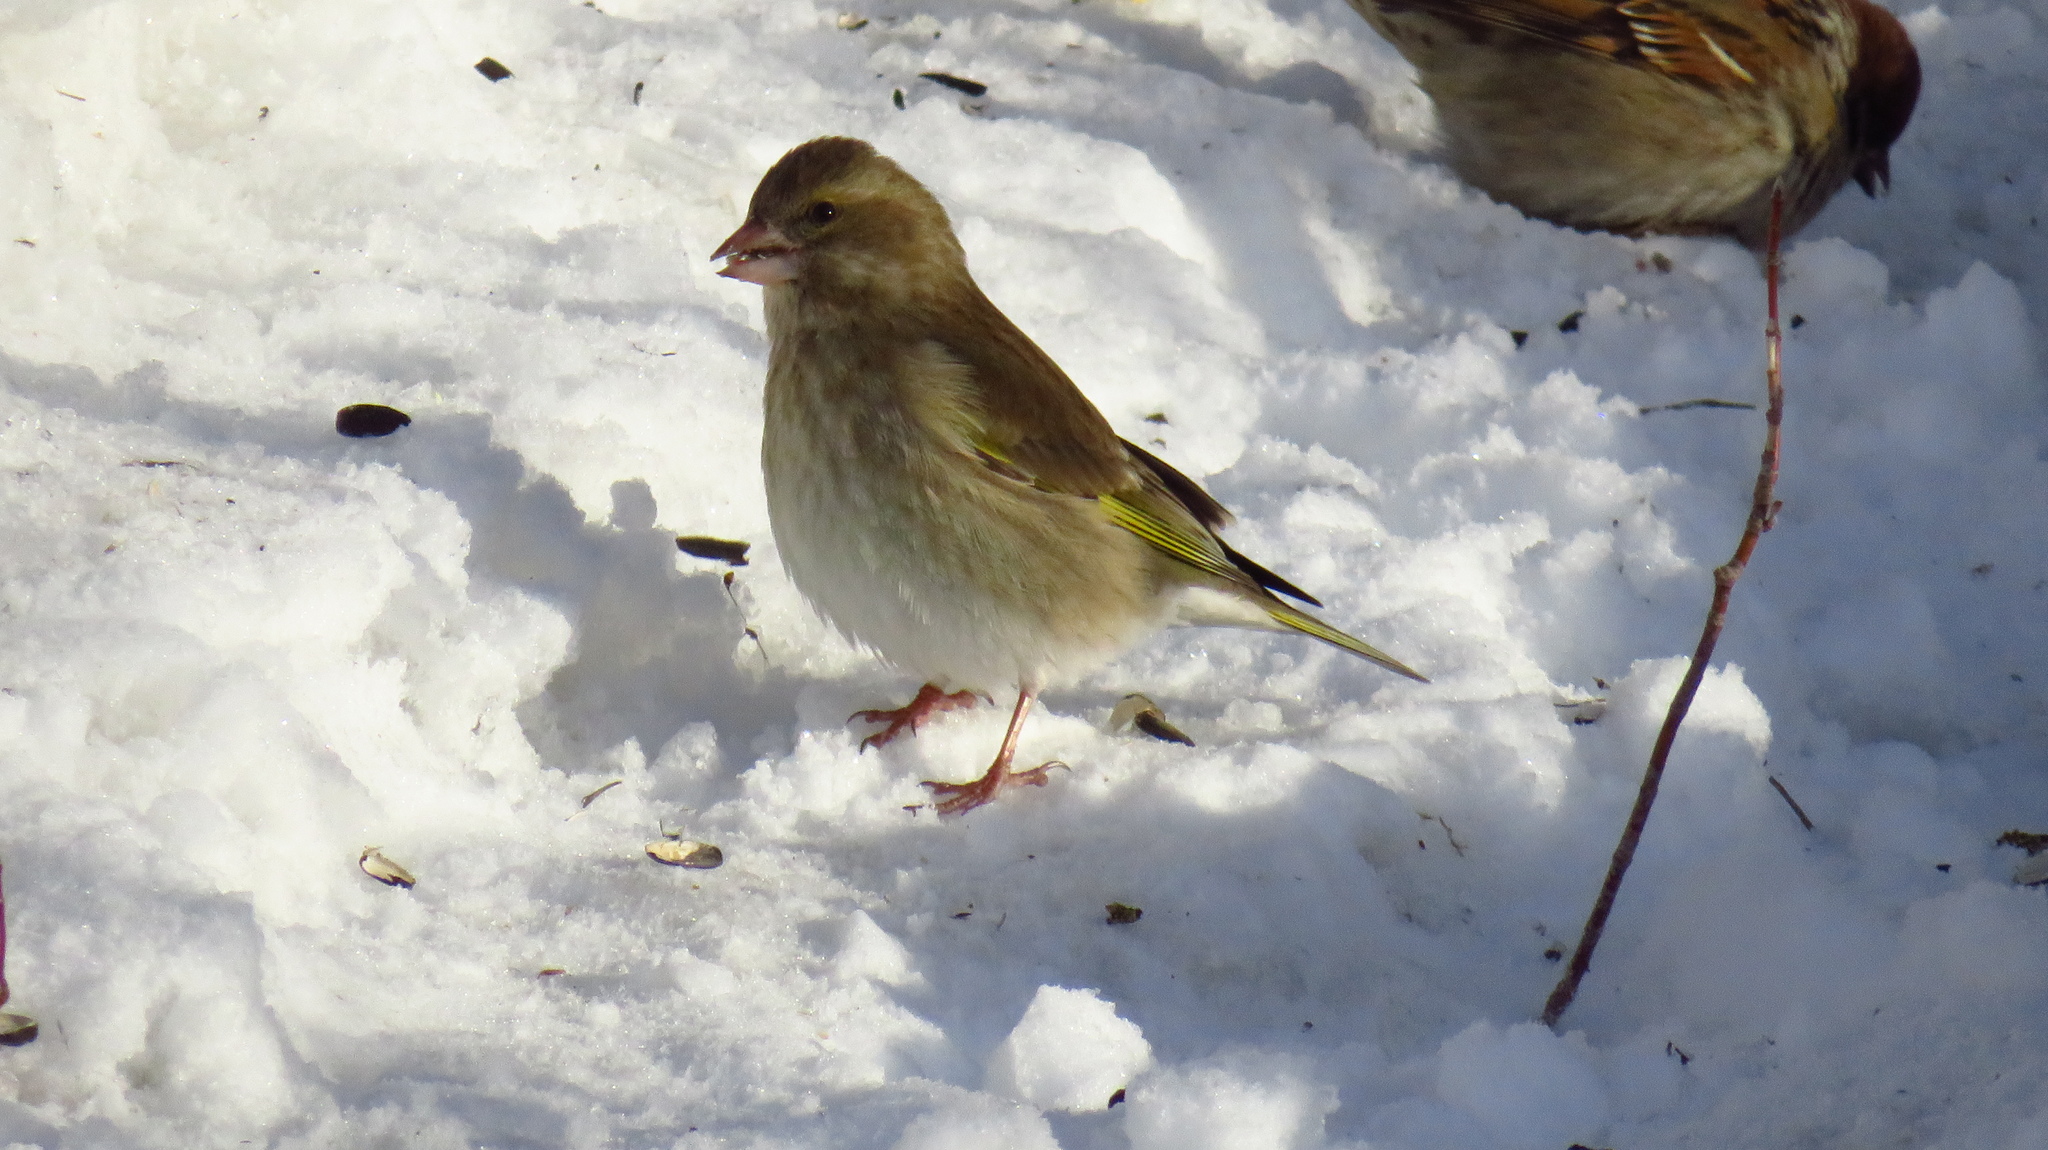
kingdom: Plantae
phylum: Tracheophyta
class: Liliopsida
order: Poales
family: Poaceae
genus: Chloris
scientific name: Chloris chloris
